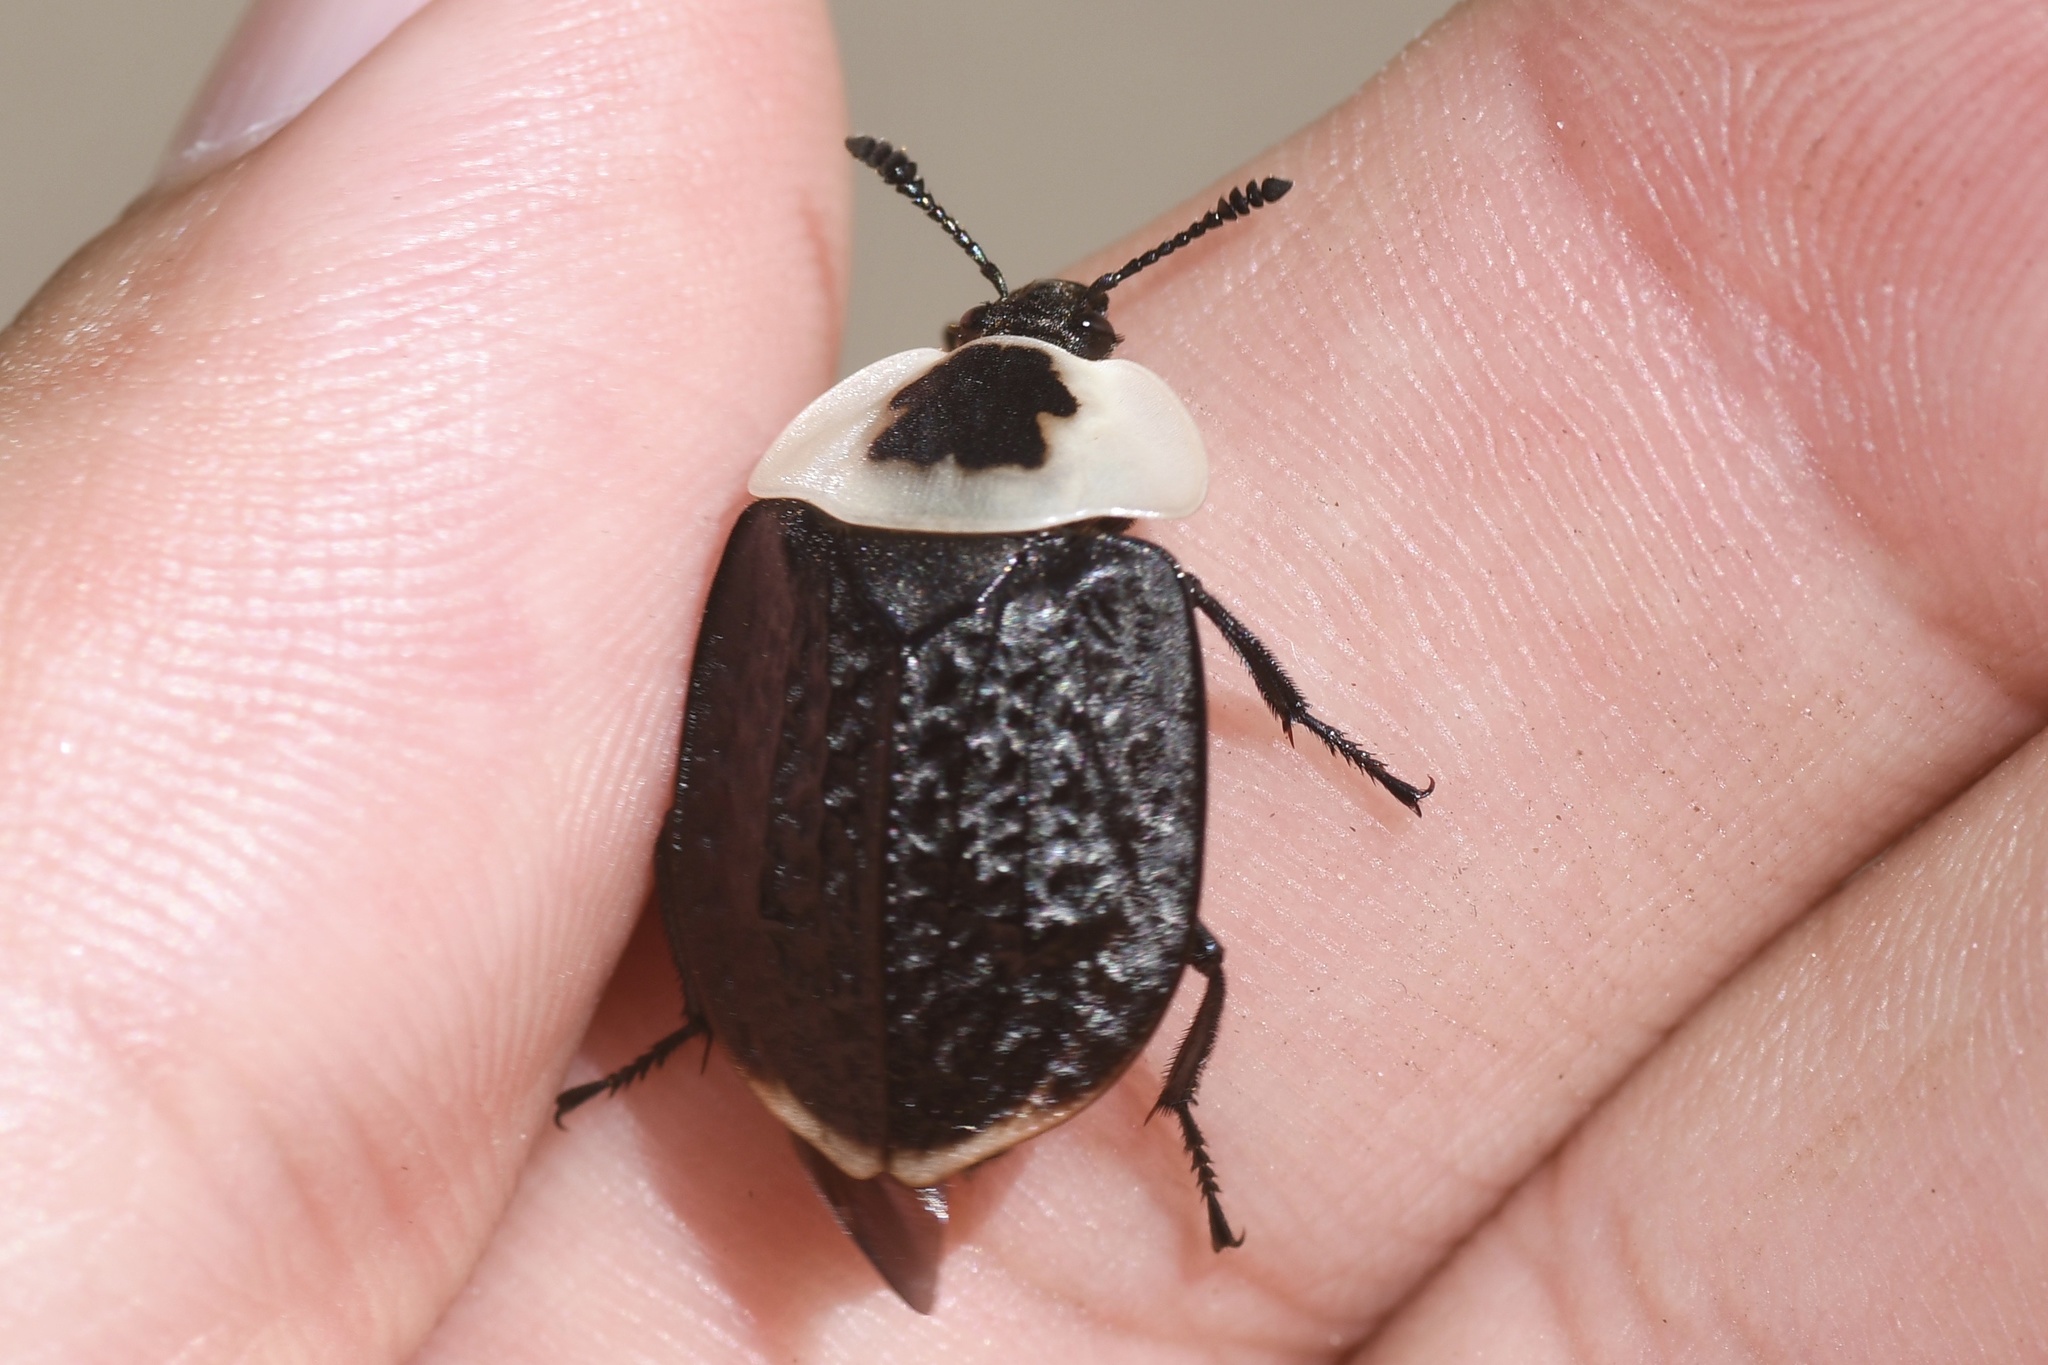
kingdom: Animalia
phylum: Arthropoda
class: Insecta
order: Coleoptera
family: Staphylinidae
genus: Necrophila
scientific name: Necrophila americana
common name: American carrion beetle
